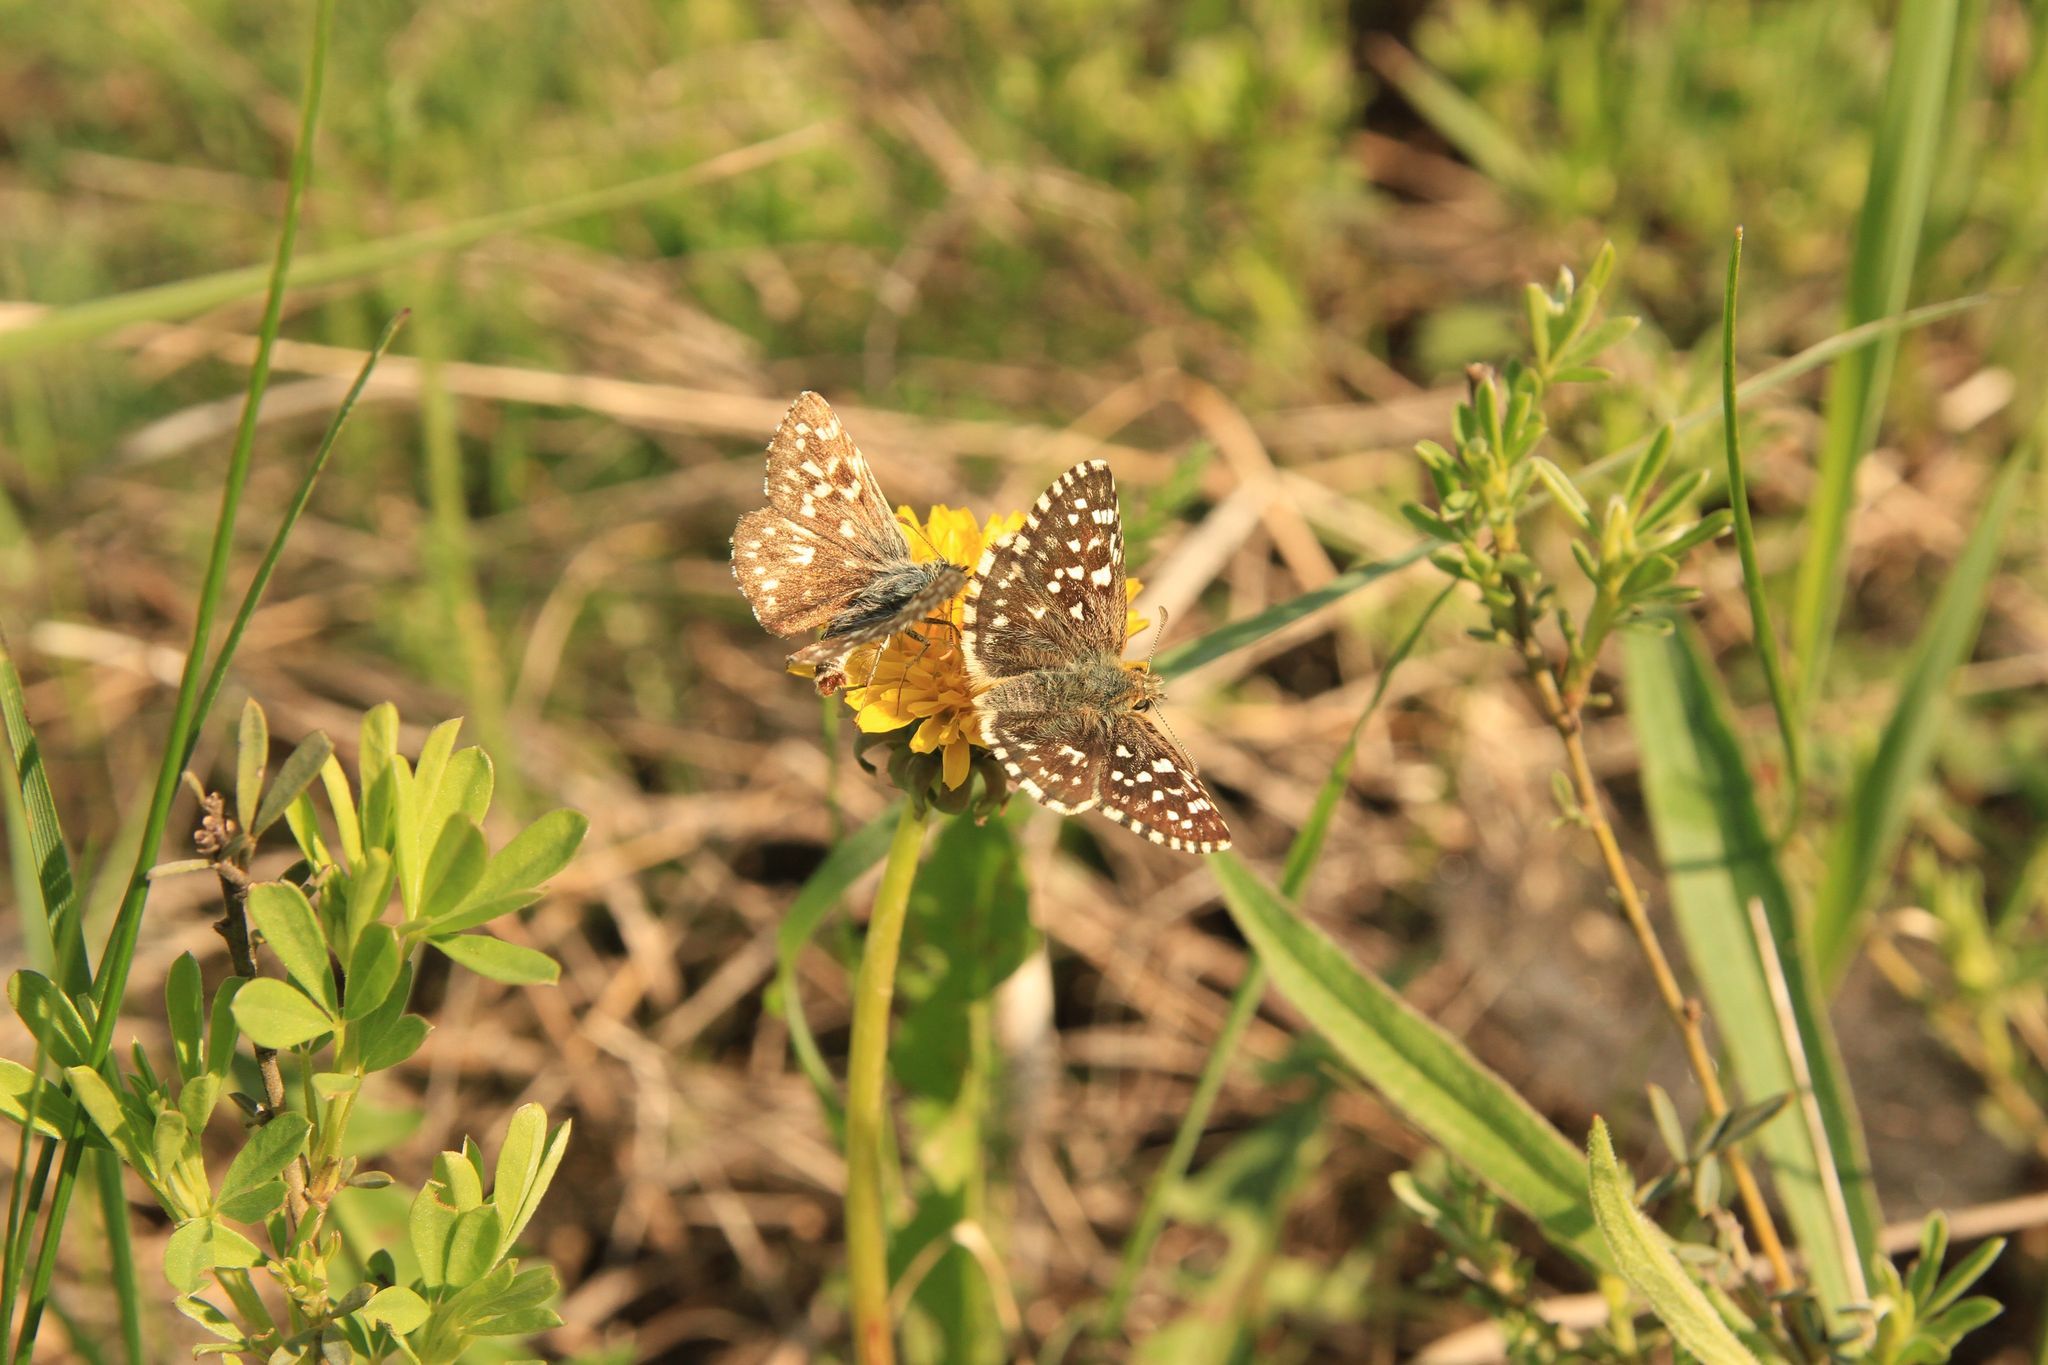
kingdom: Animalia
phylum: Arthropoda
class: Insecta
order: Lepidoptera
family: Hesperiidae
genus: Pyrgus
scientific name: Pyrgus malvae
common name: Grizzled skipper
